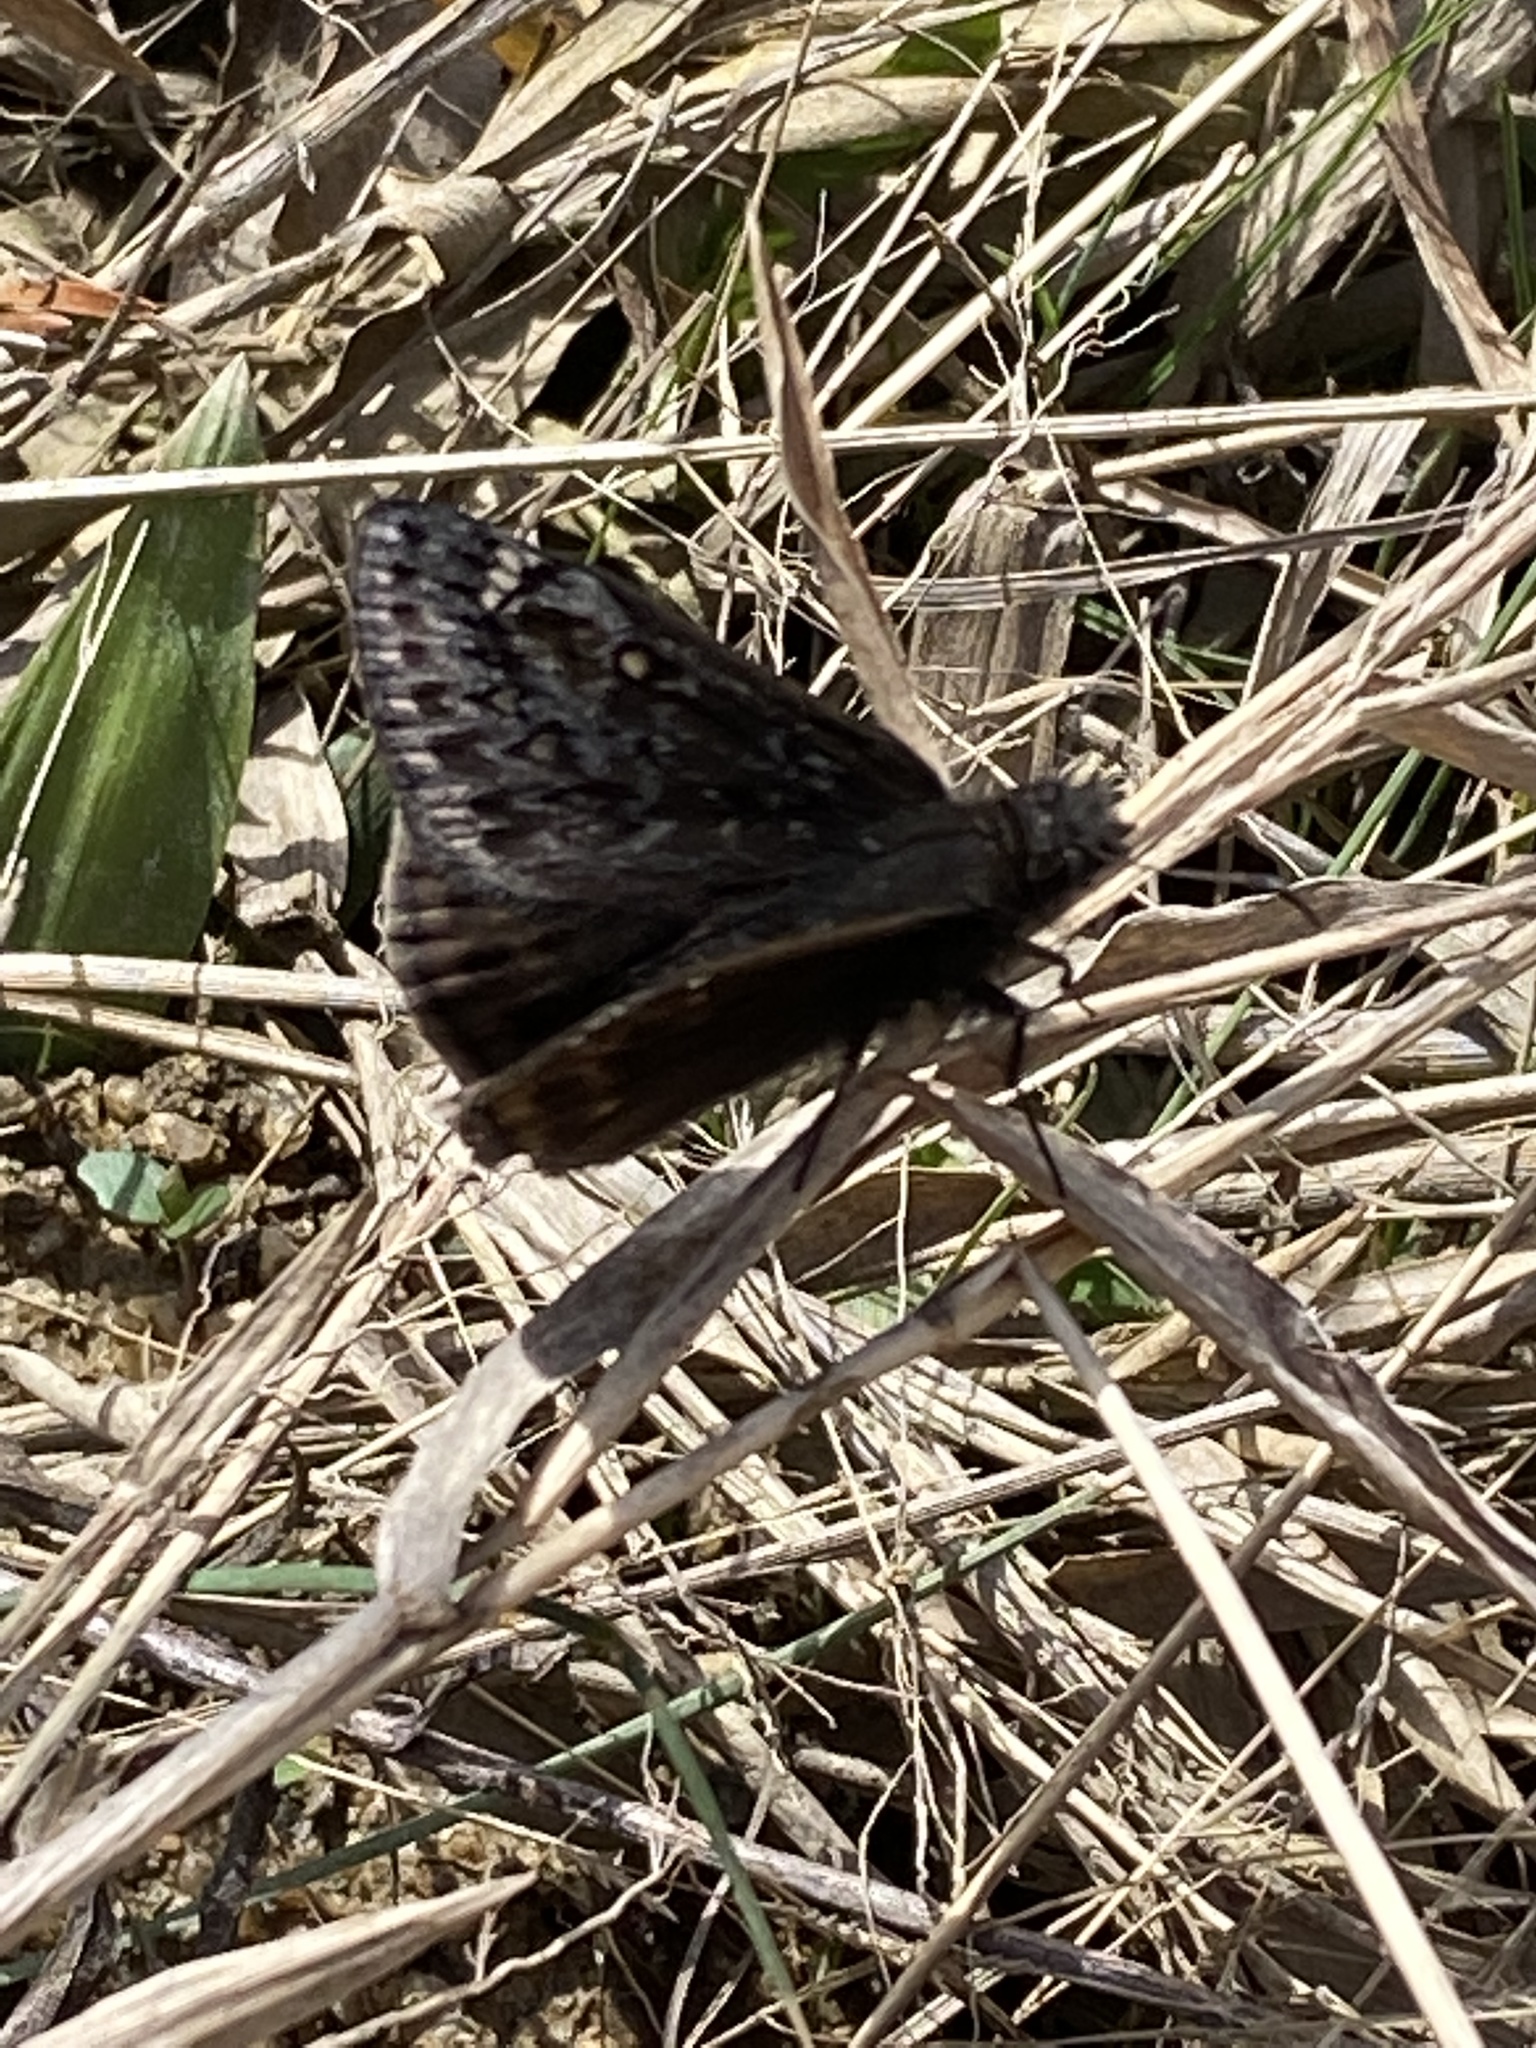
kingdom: Animalia
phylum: Arthropoda
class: Insecta
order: Lepidoptera
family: Hesperiidae
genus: Erynnis
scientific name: Erynnis juvenalis
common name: Juvenal's duskywing
